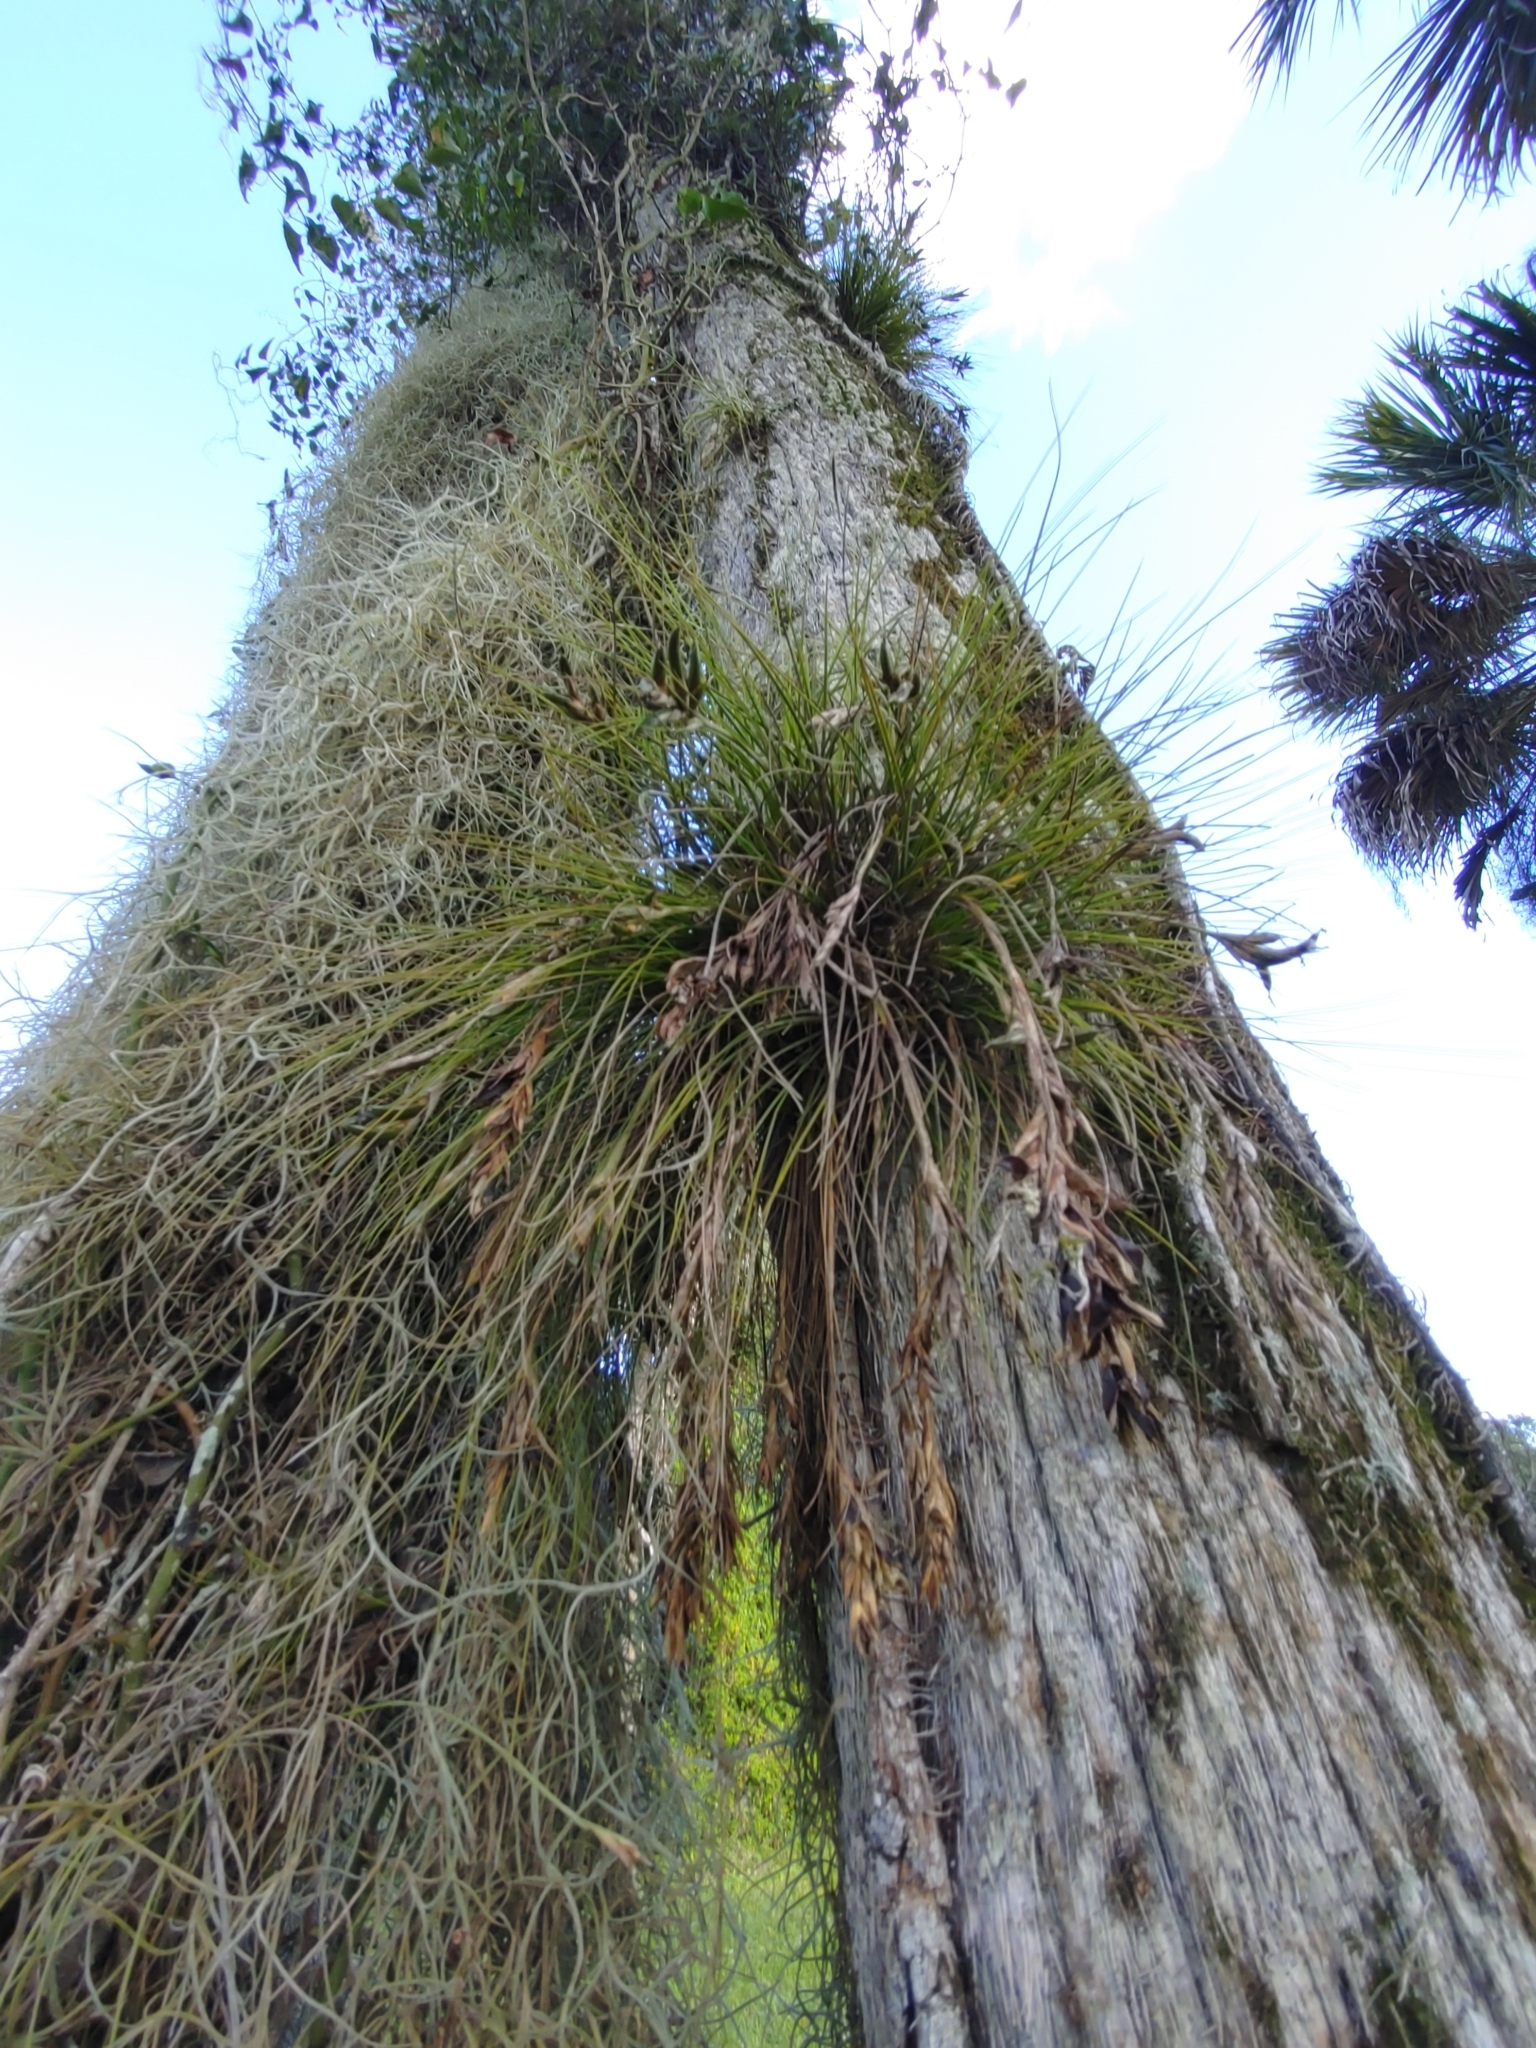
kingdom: Plantae
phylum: Tracheophyta
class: Liliopsida
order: Poales
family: Bromeliaceae
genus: Tillandsia
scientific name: Tillandsia setacea
